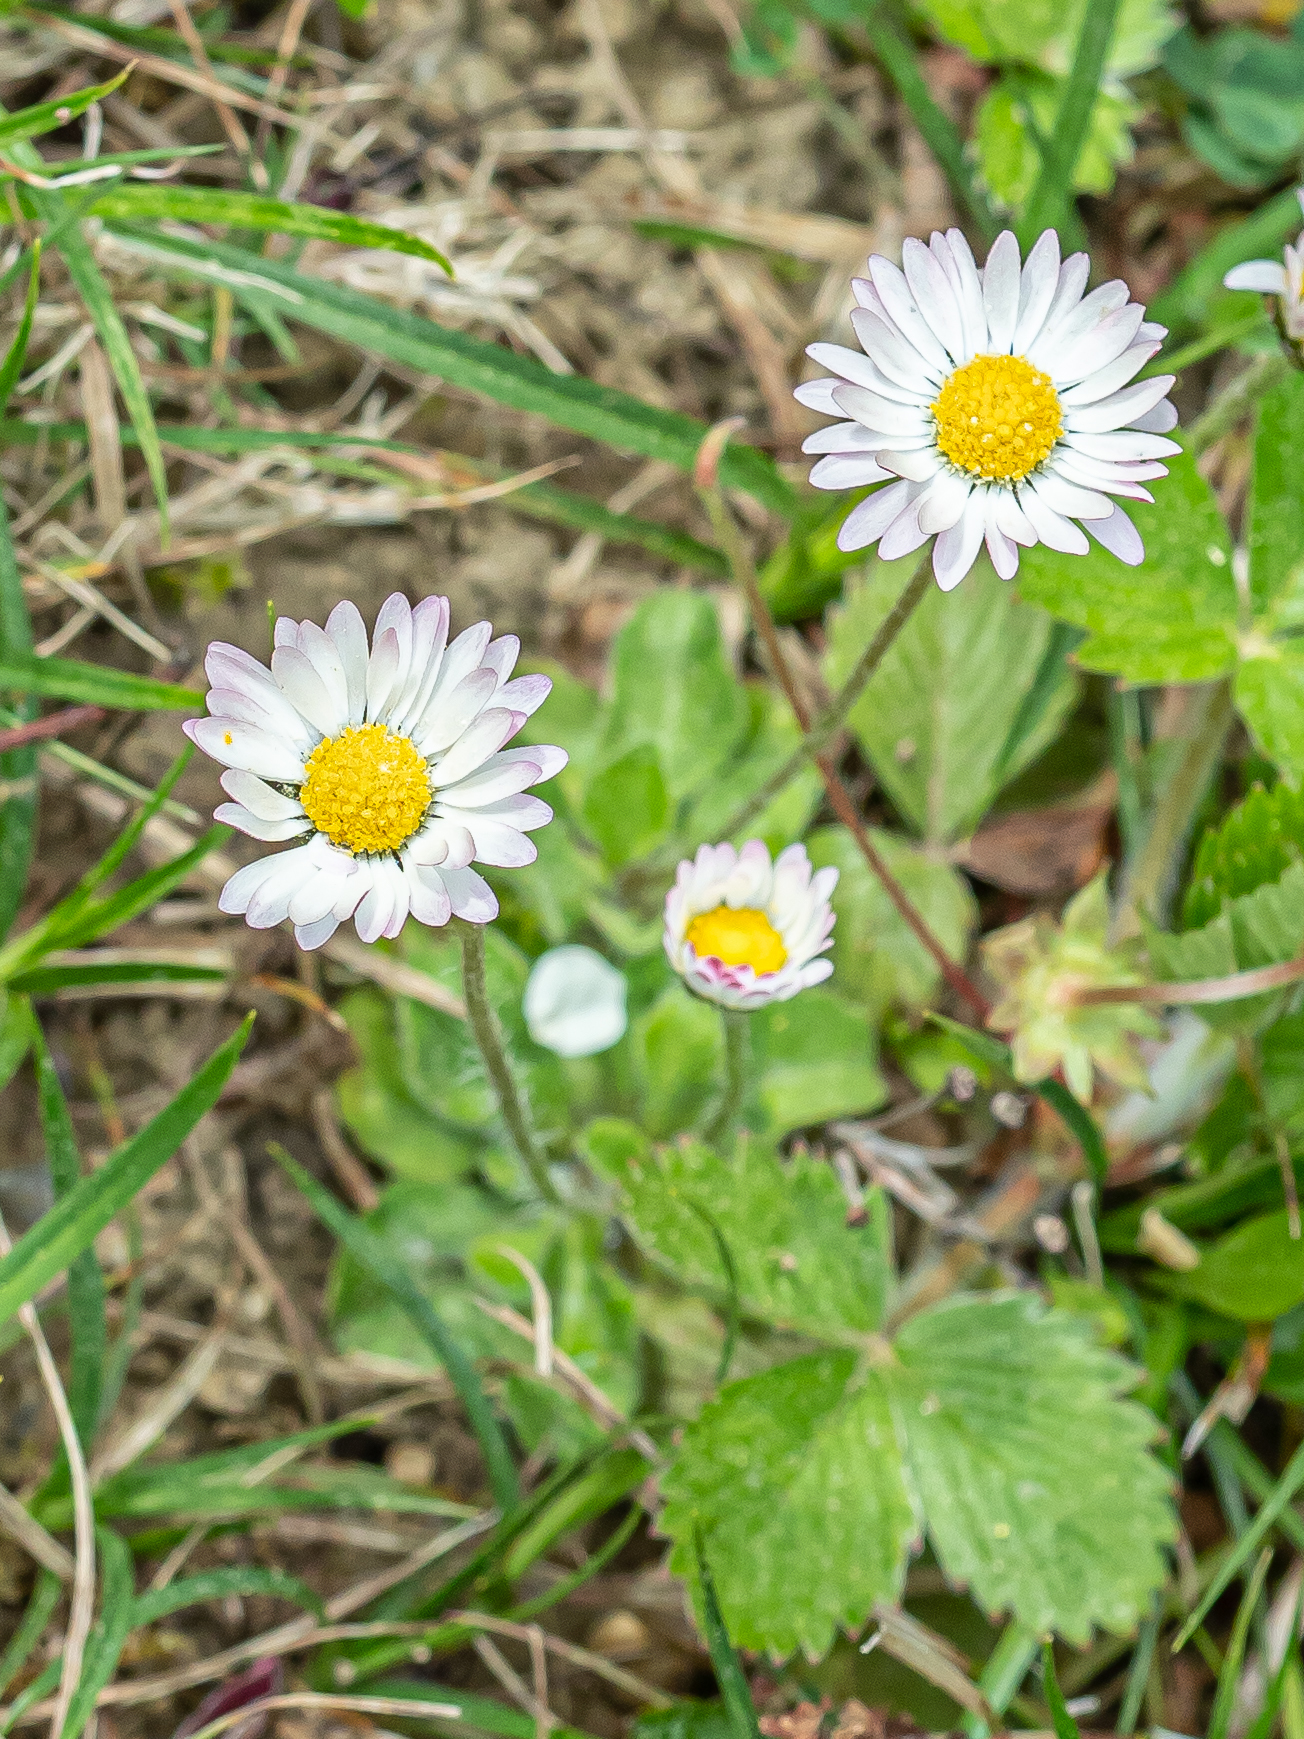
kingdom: Plantae
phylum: Tracheophyta
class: Magnoliopsida
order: Asterales
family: Asteraceae
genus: Bellis
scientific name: Bellis perennis
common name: Lawndaisy
